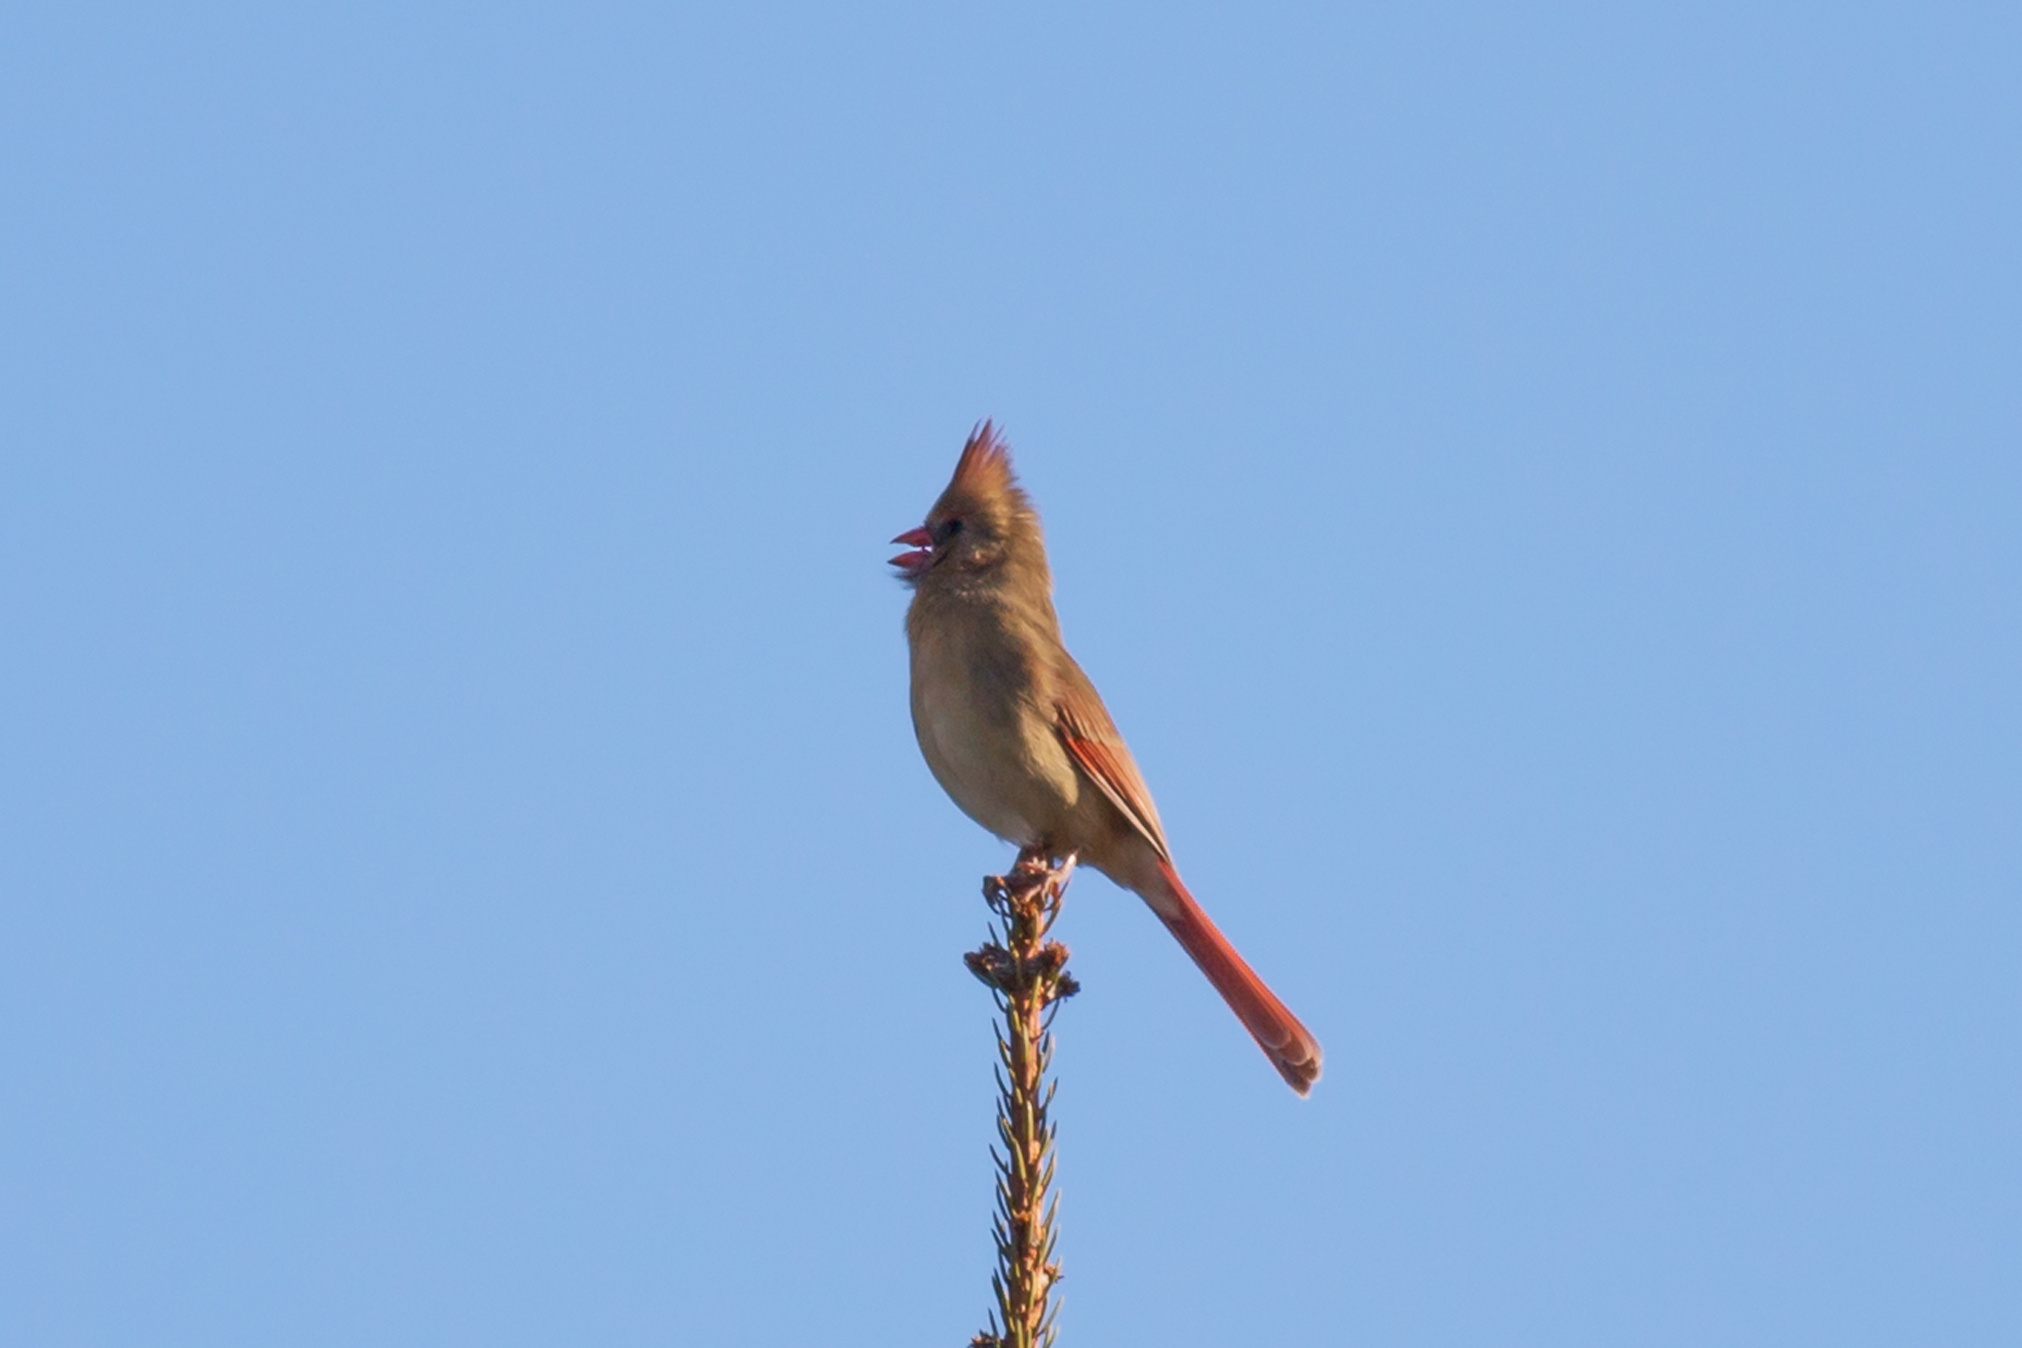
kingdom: Animalia
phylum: Chordata
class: Aves
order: Passeriformes
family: Cardinalidae
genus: Cardinalis
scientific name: Cardinalis cardinalis
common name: Northern cardinal
